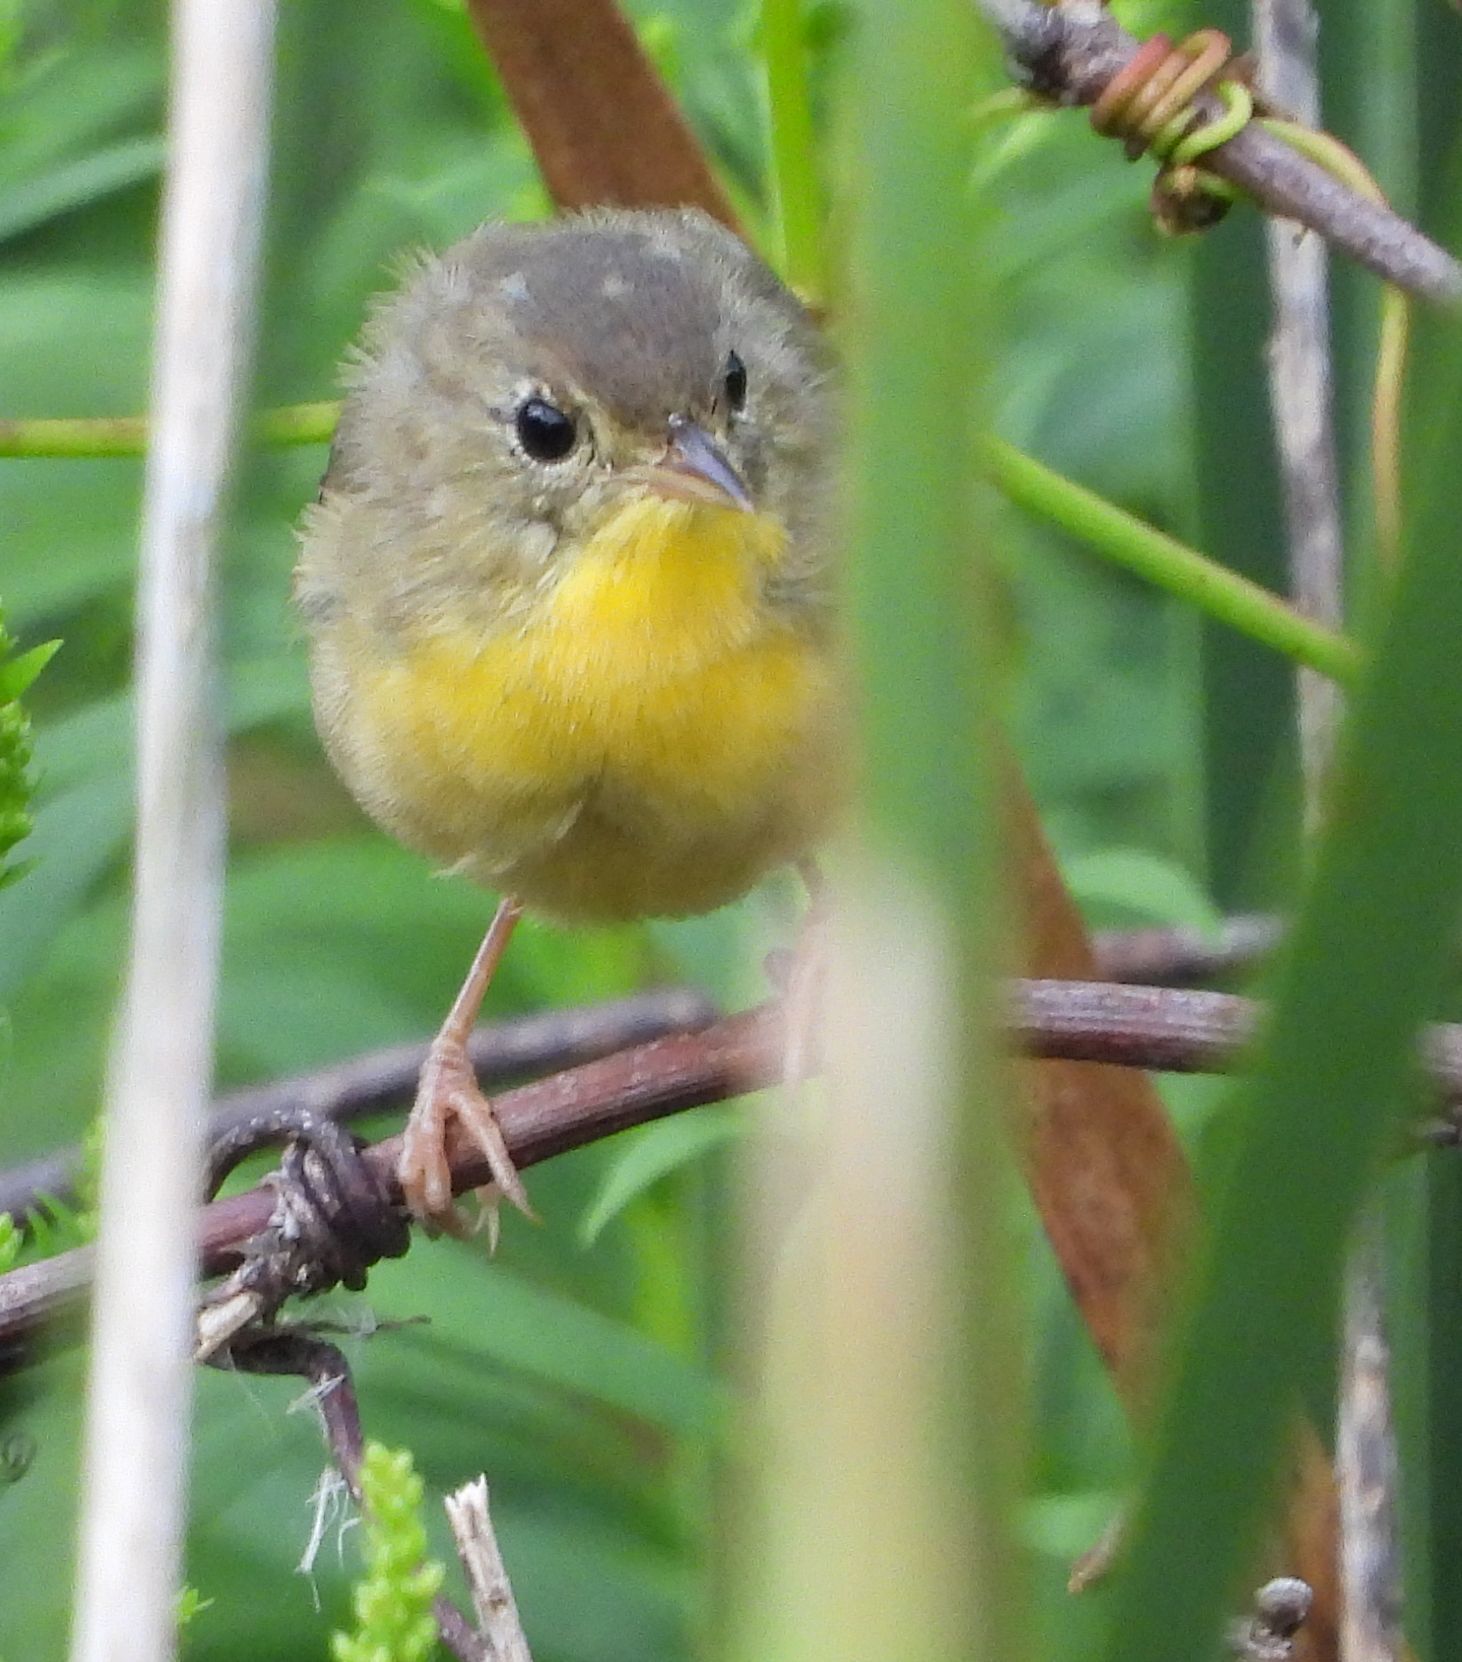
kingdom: Animalia
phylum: Chordata
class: Aves
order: Passeriformes
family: Parulidae
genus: Geothlypis
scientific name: Geothlypis trichas
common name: Common yellowthroat
